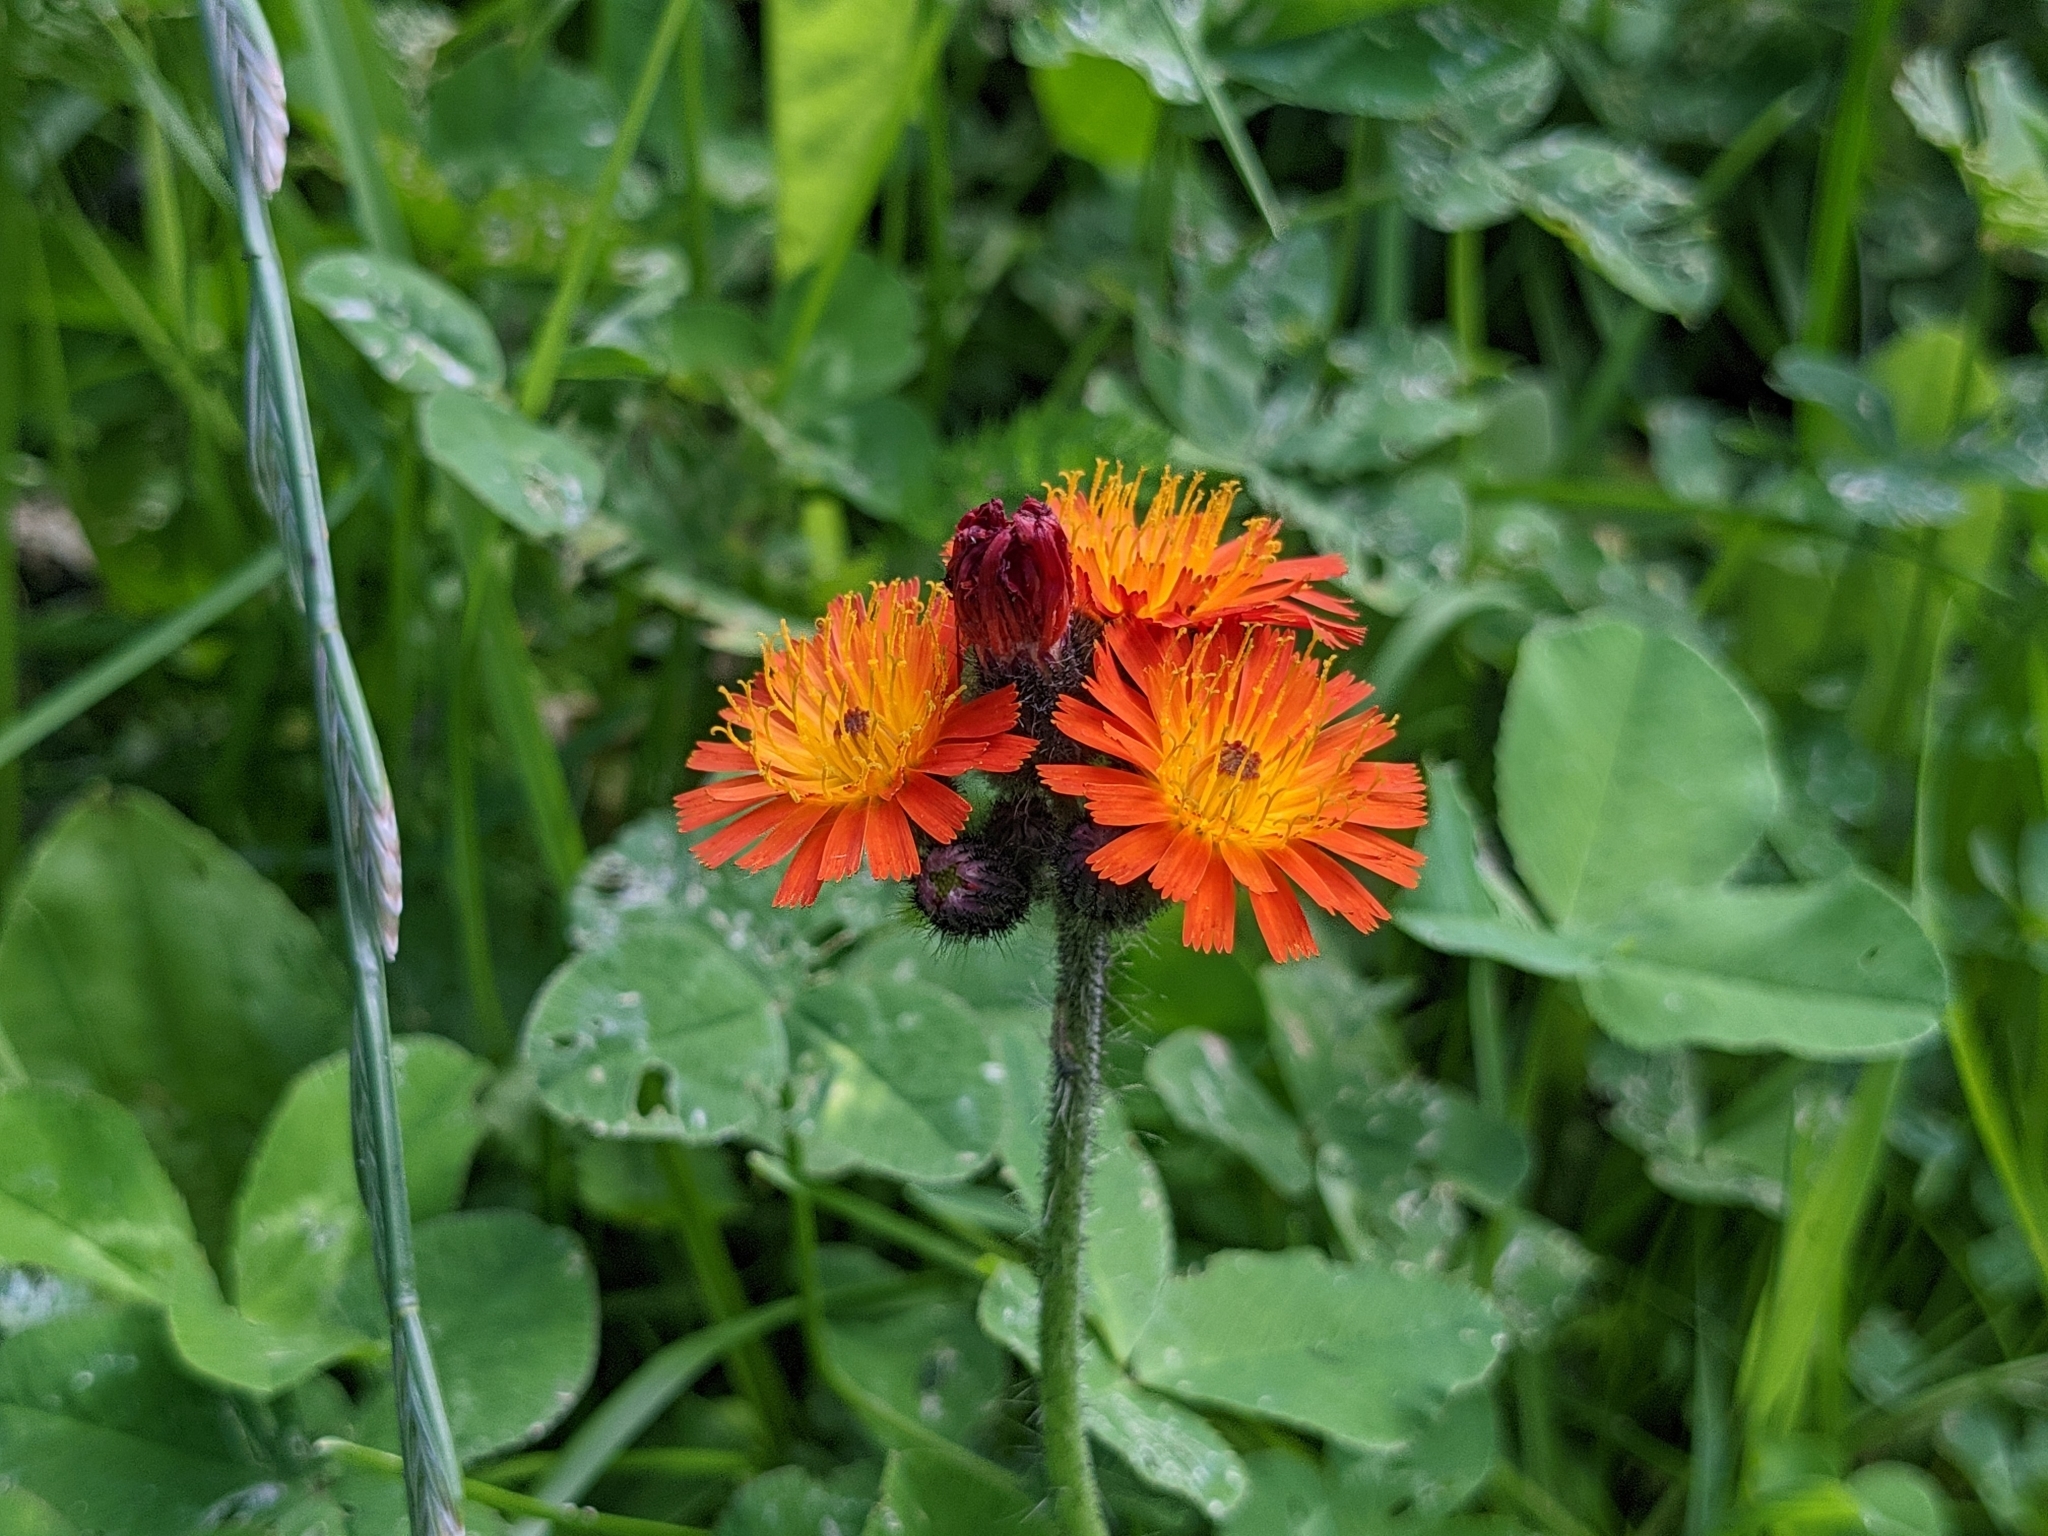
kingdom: Plantae
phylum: Tracheophyta
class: Magnoliopsida
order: Asterales
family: Asteraceae
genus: Pilosella
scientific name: Pilosella aurantiaca
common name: Fox-and-cubs
